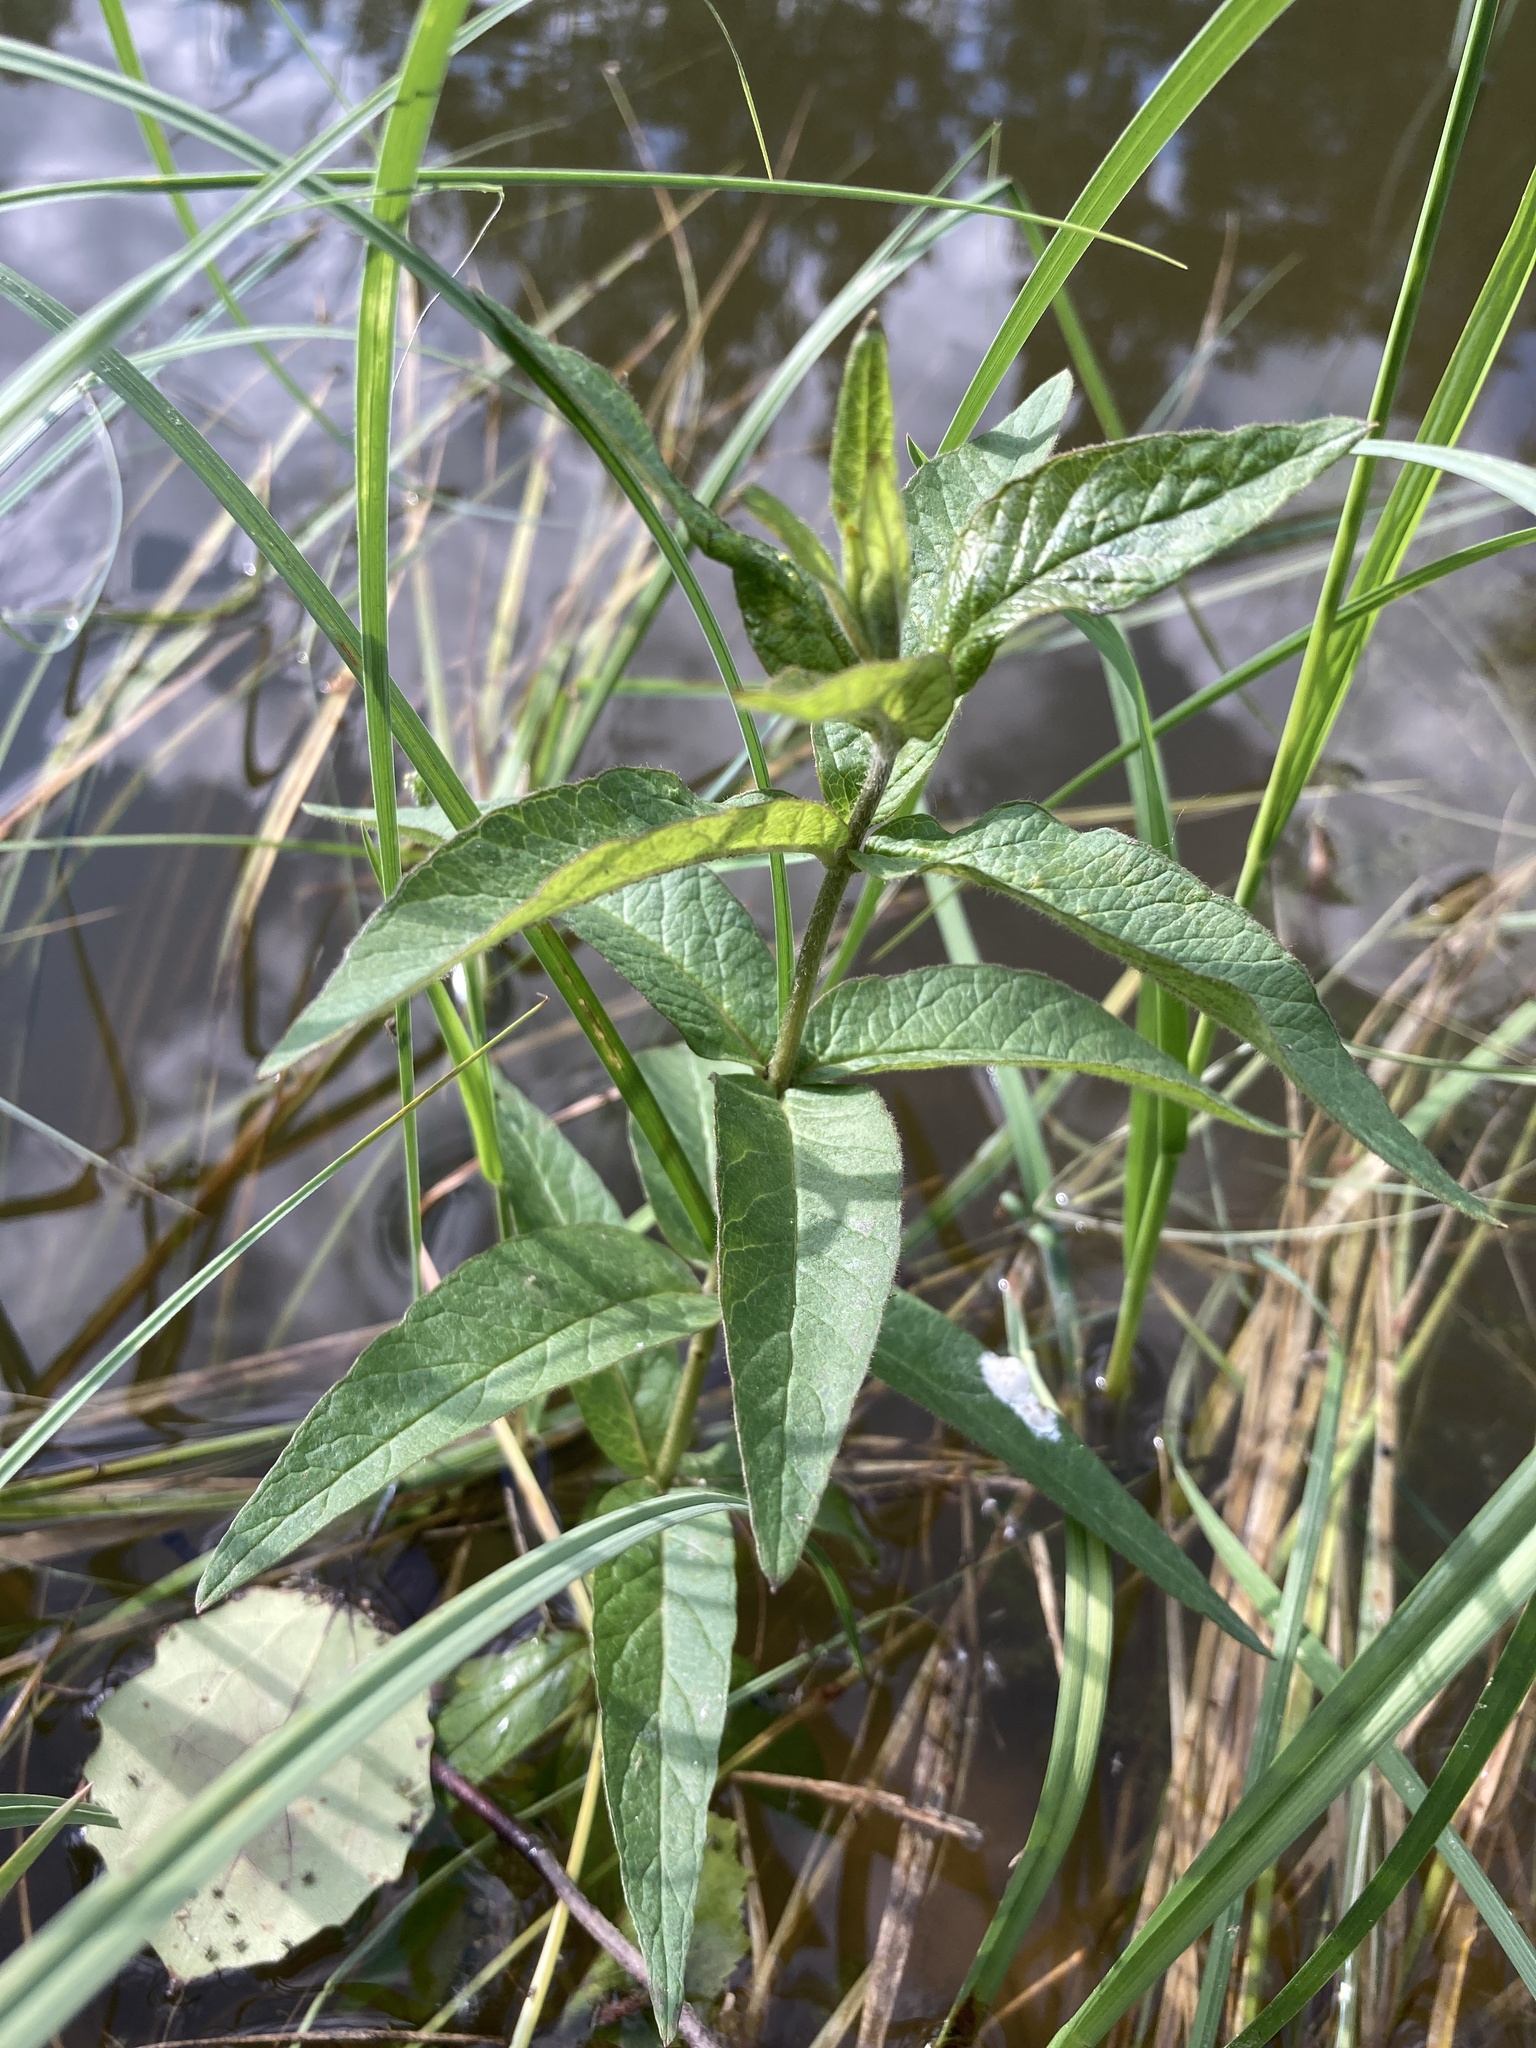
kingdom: Plantae
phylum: Tracheophyta
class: Magnoliopsida
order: Ericales
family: Primulaceae
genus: Lysimachia
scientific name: Lysimachia vulgaris
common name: Yellow loosestrife
